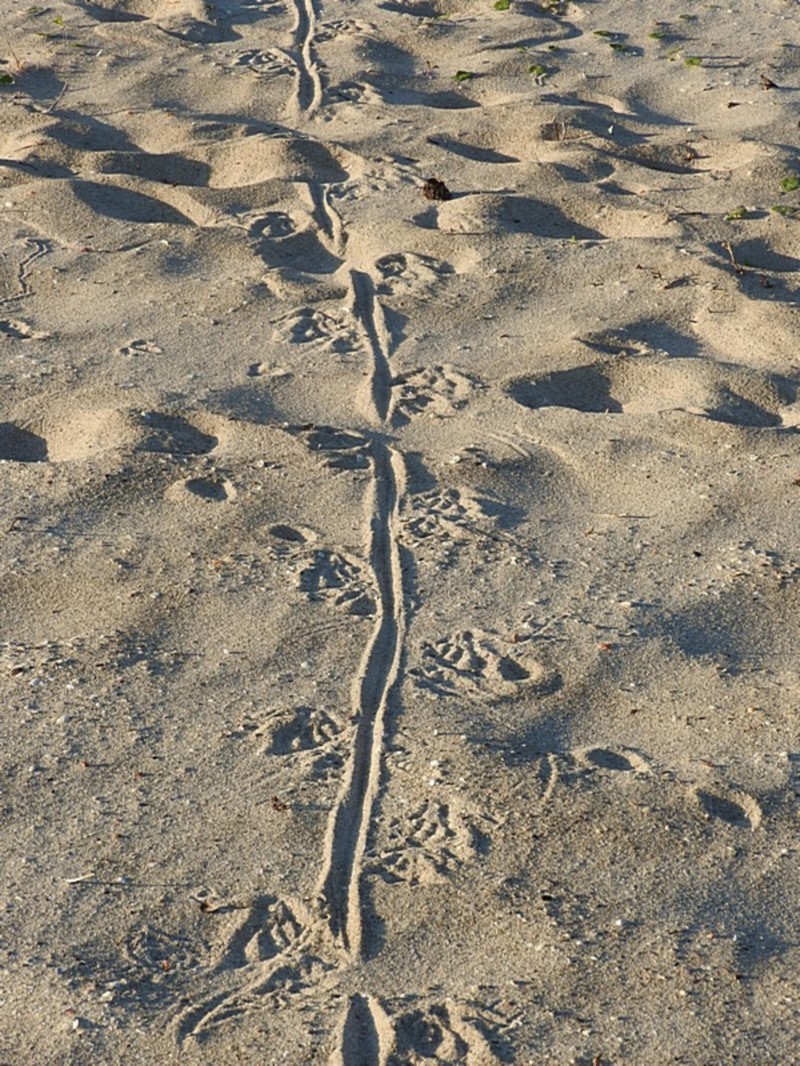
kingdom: Animalia
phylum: Chordata
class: Squamata
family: Varanidae
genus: Varanus
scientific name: Varanus varius
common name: Lace monitor
